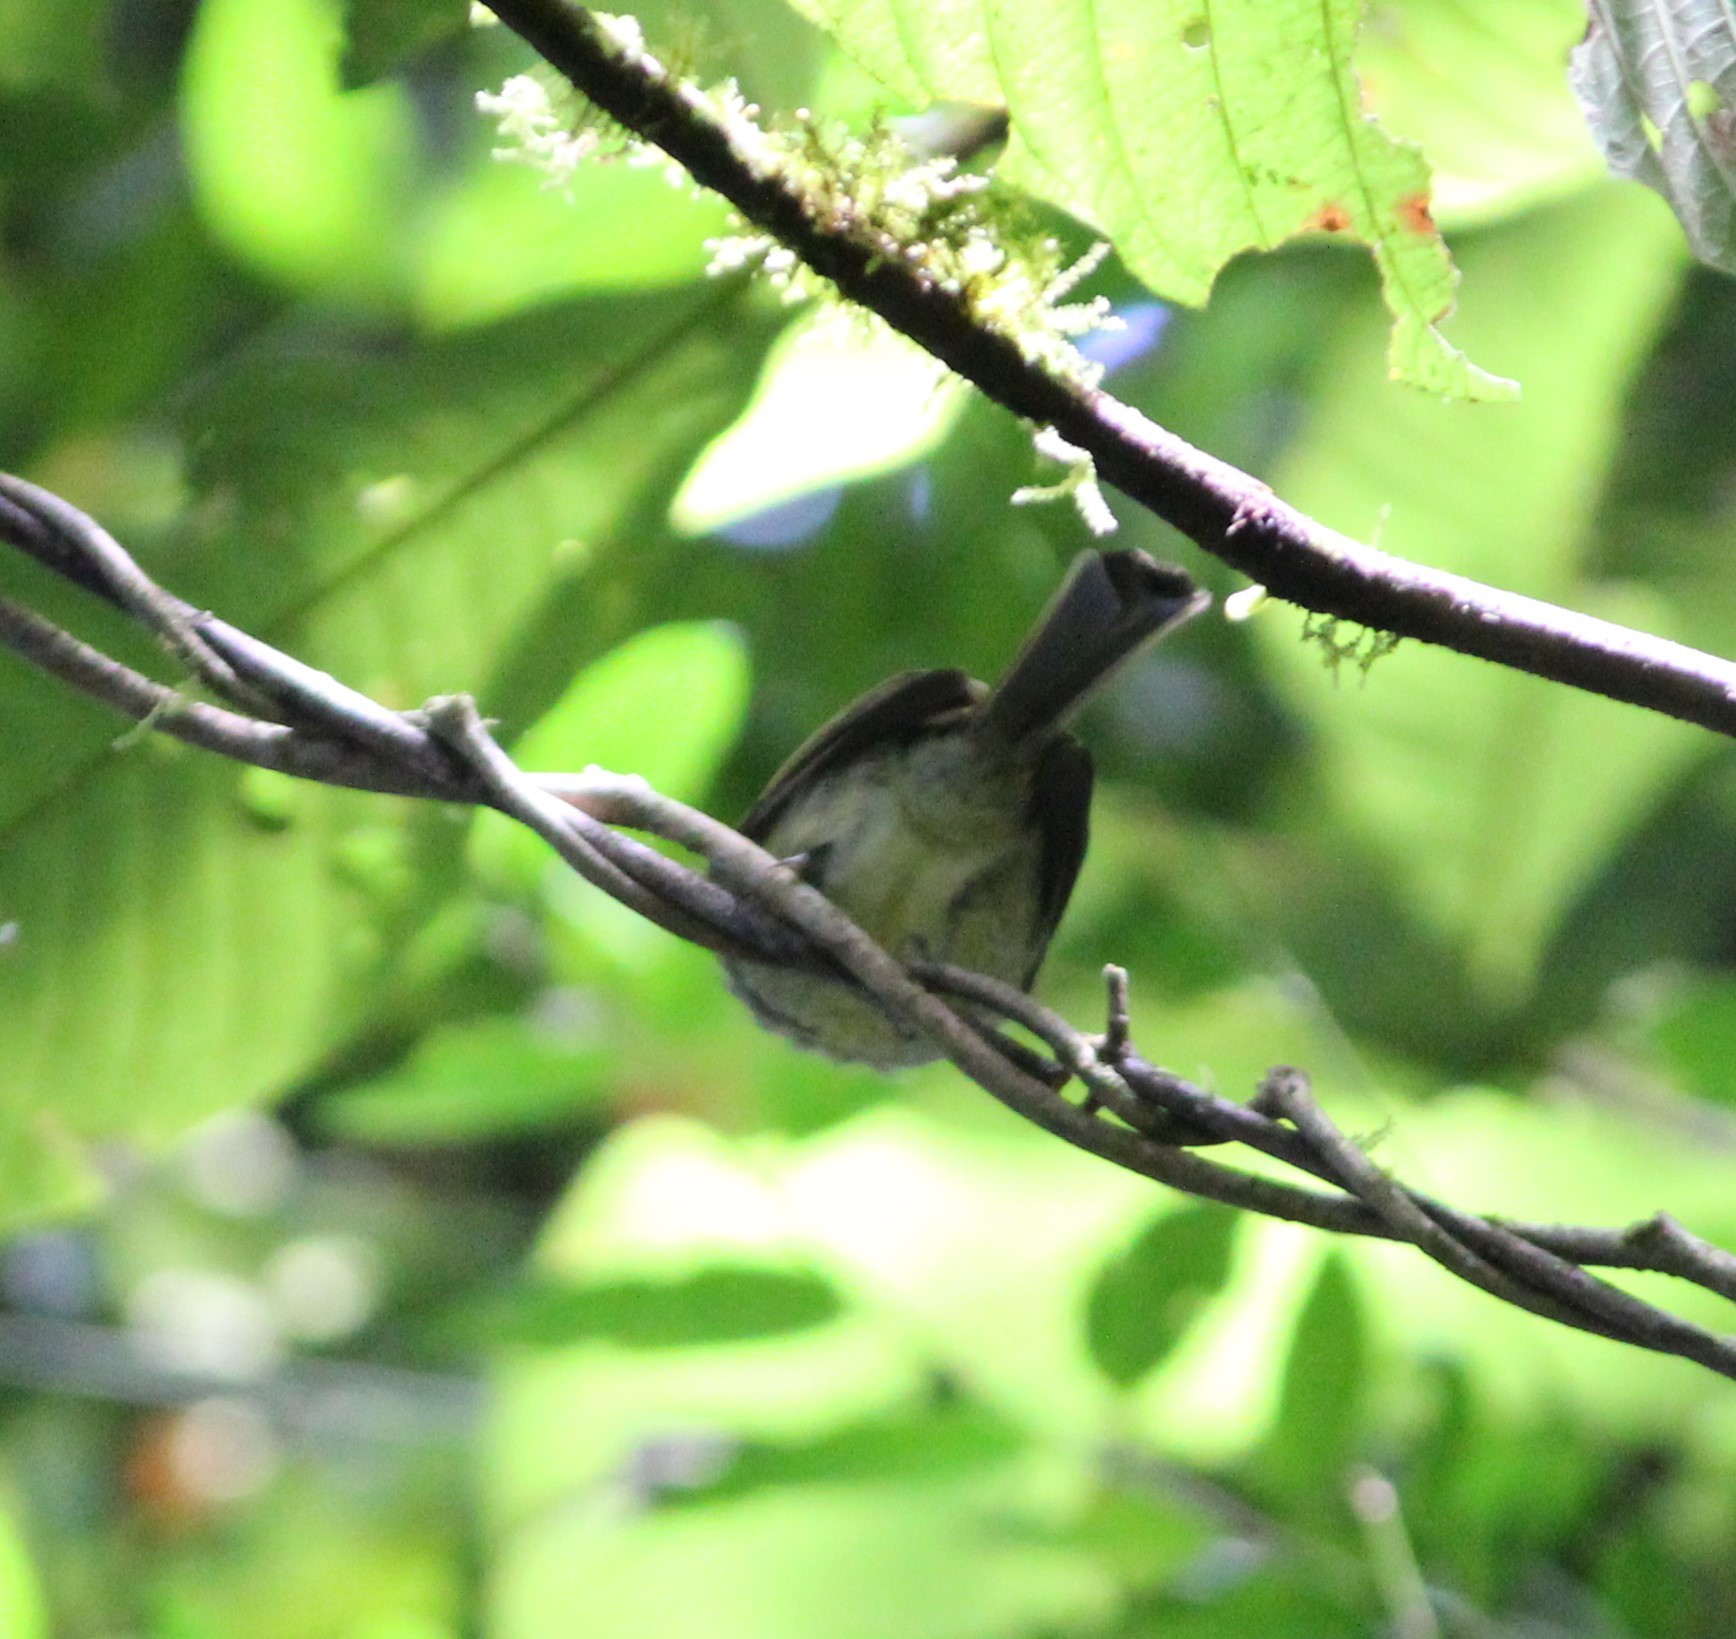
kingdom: Animalia
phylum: Chordata
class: Aves
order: Passeriformes
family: Passerellidae
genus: Chlorospingus
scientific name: Chlorospingus flavopectus
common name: Common chlorospingus
